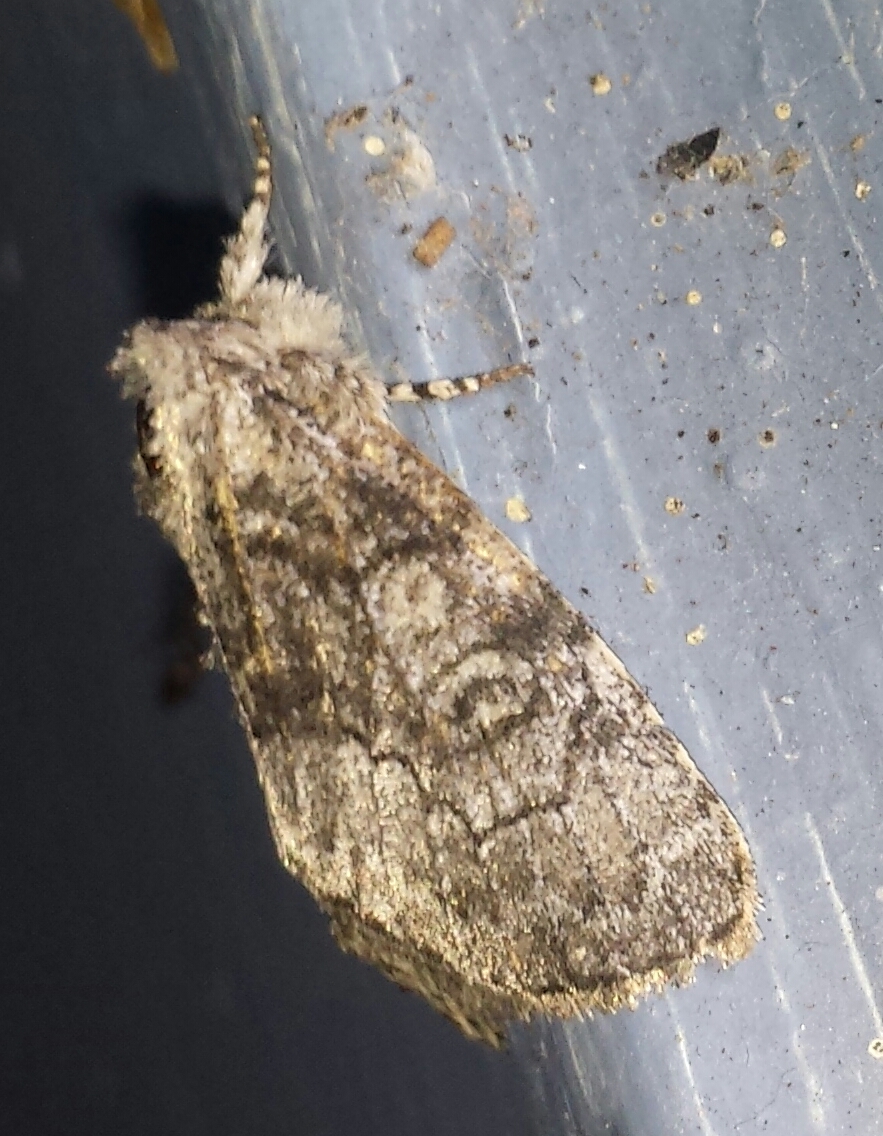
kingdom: Animalia
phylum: Arthropoda
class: Insecta
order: Lepidoptera
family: Noctuidae
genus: Raphia
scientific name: Raphia frater
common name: Brother
